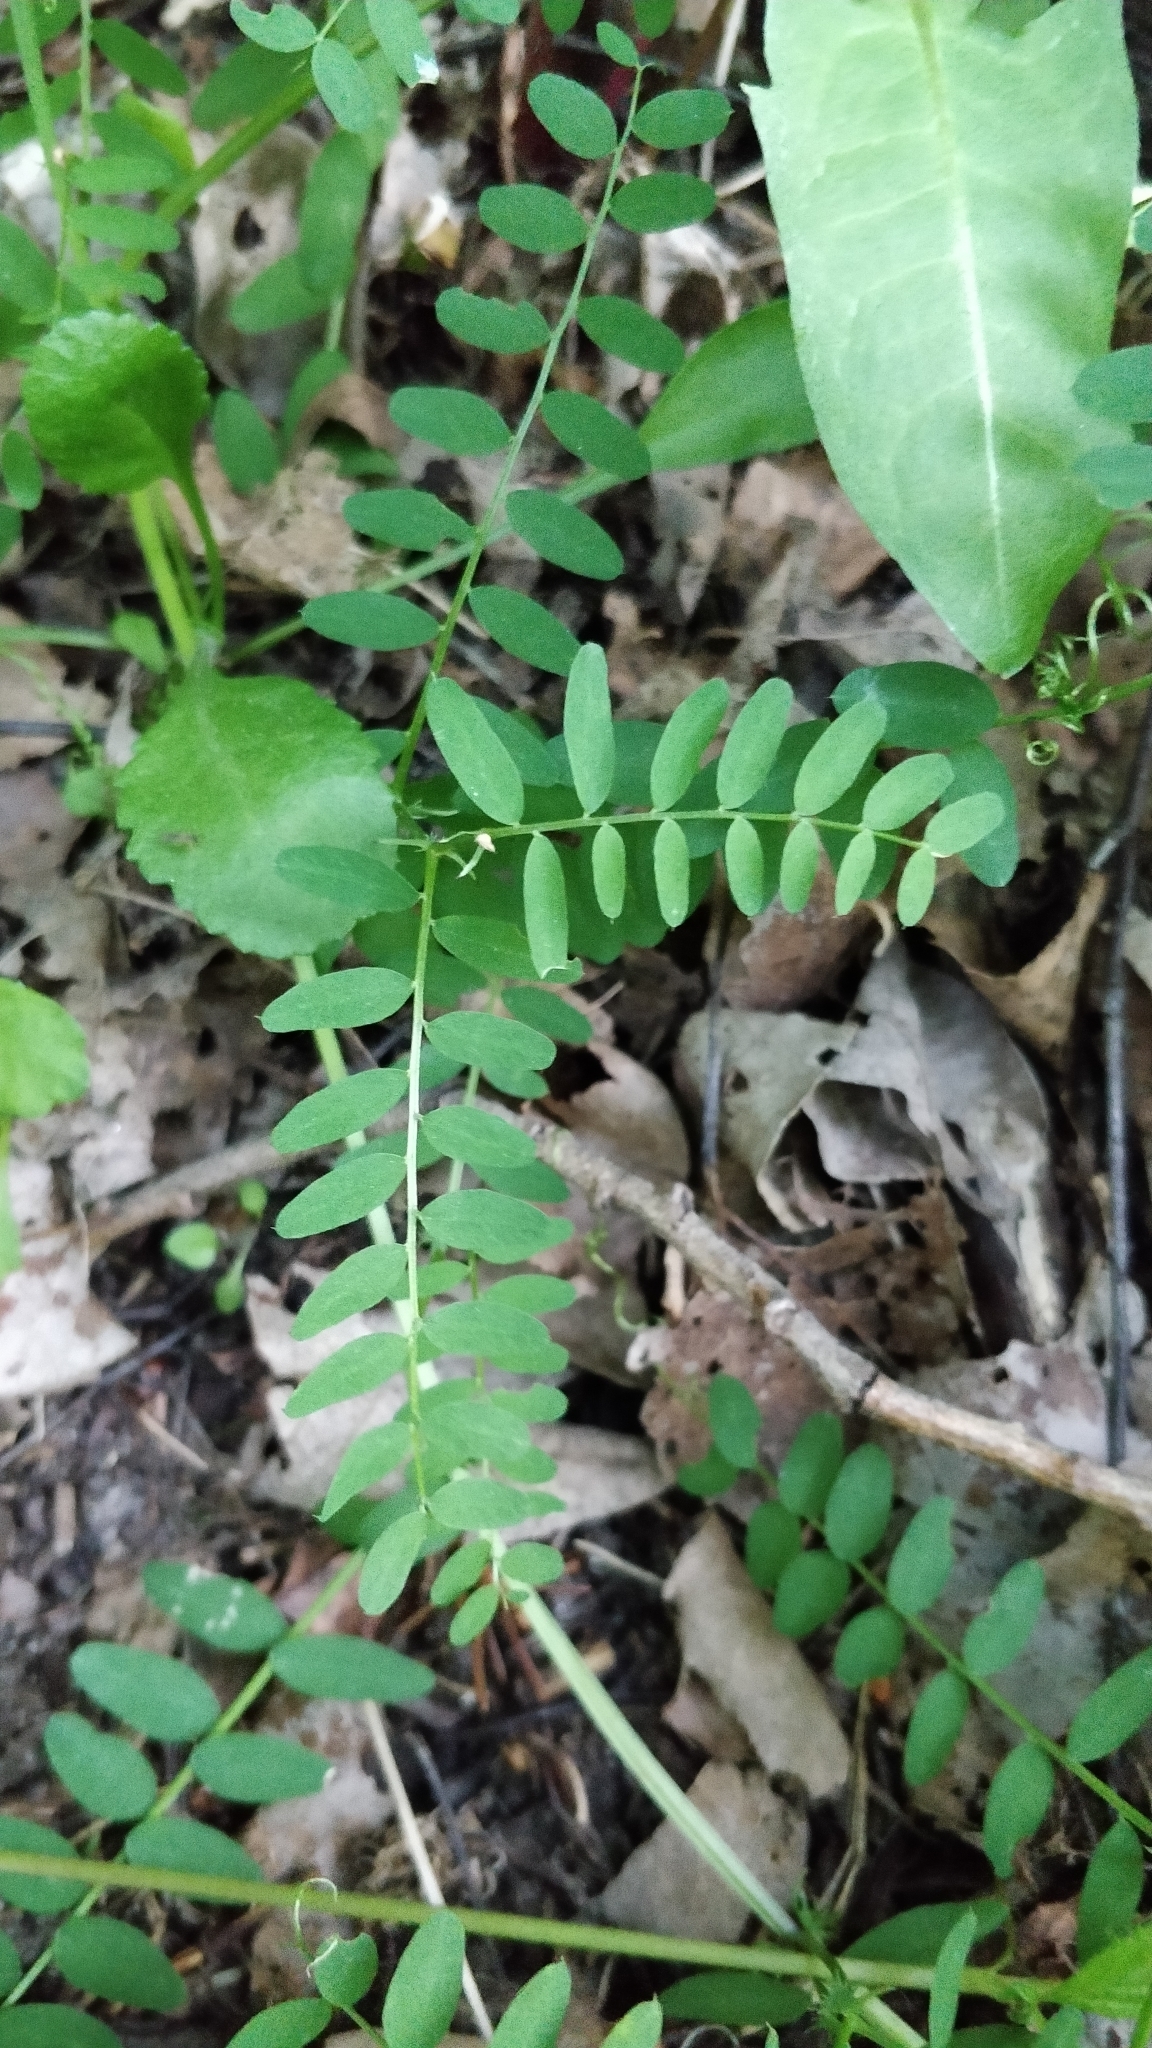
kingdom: Plantae
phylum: Tracheophyta
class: Magnoliopsida
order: Fabales
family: Fabaceae
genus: Vicia
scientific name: Vicia sylvatica
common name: Wood vetch
